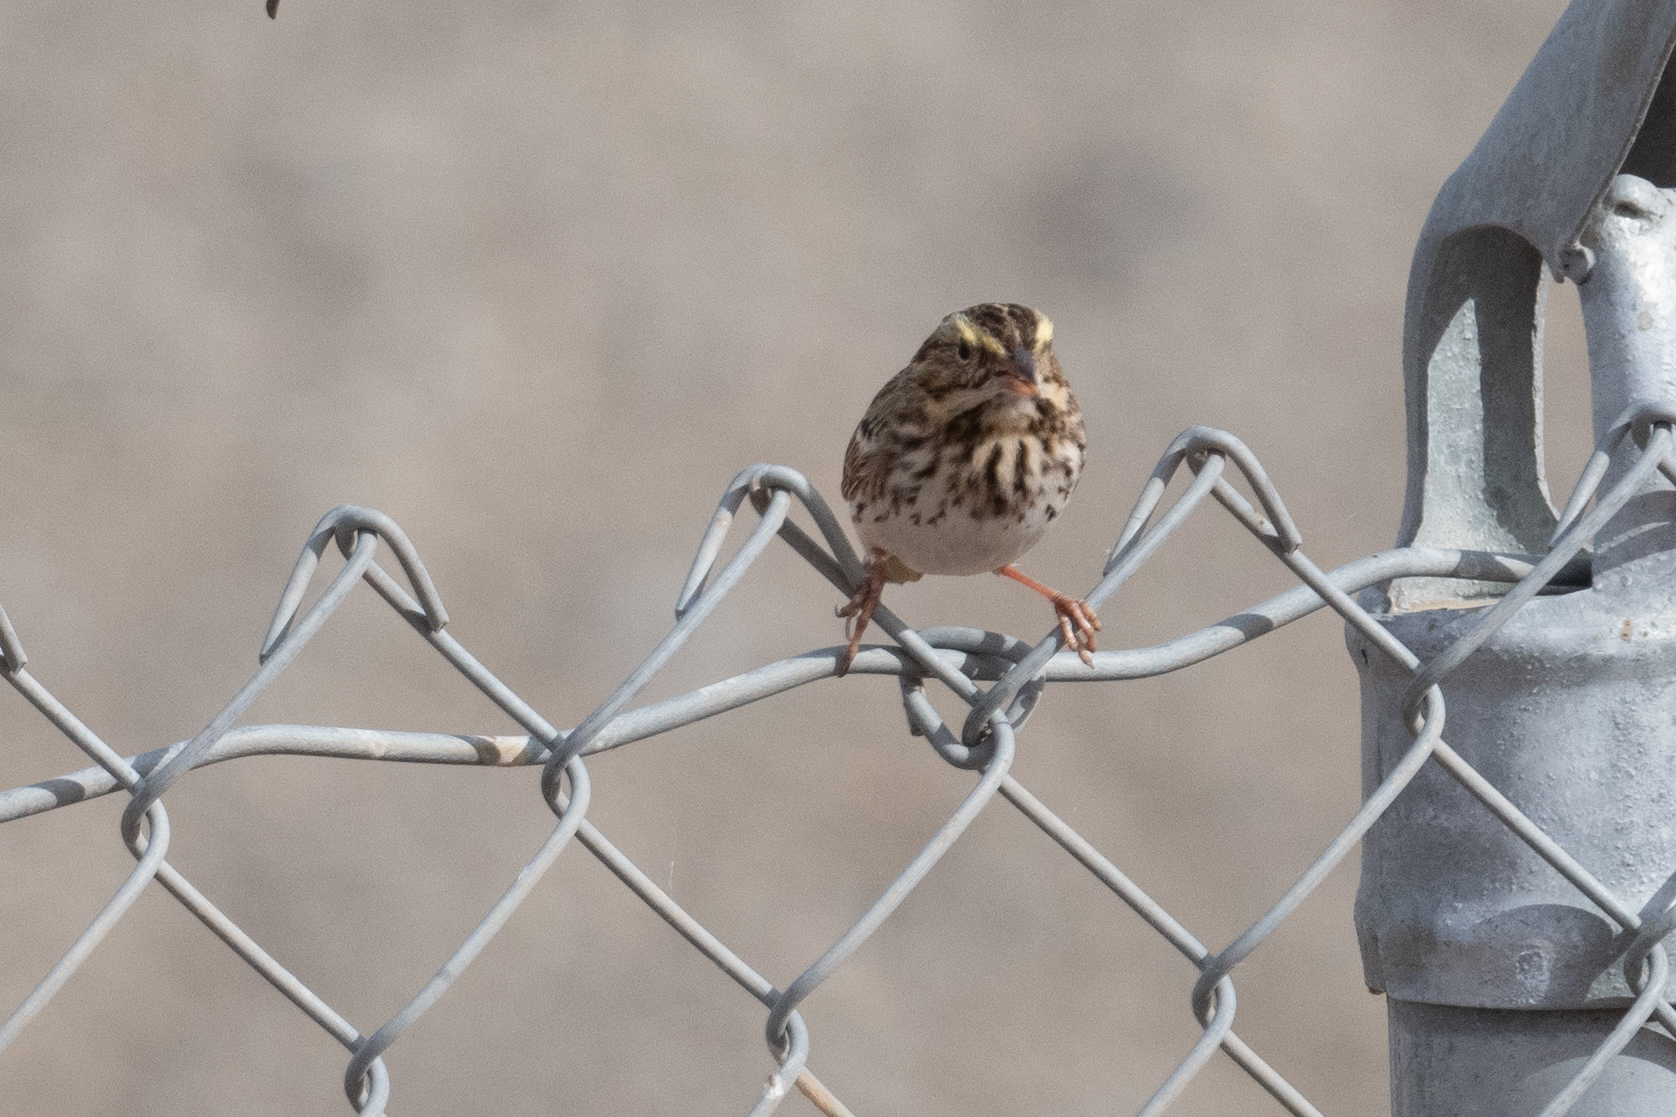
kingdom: Animalia
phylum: Chordata
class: Aves
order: Passeriformes
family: Passerellidae
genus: Passerculus
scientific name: Passerculus sandwichensis
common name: Savannah sparrow
